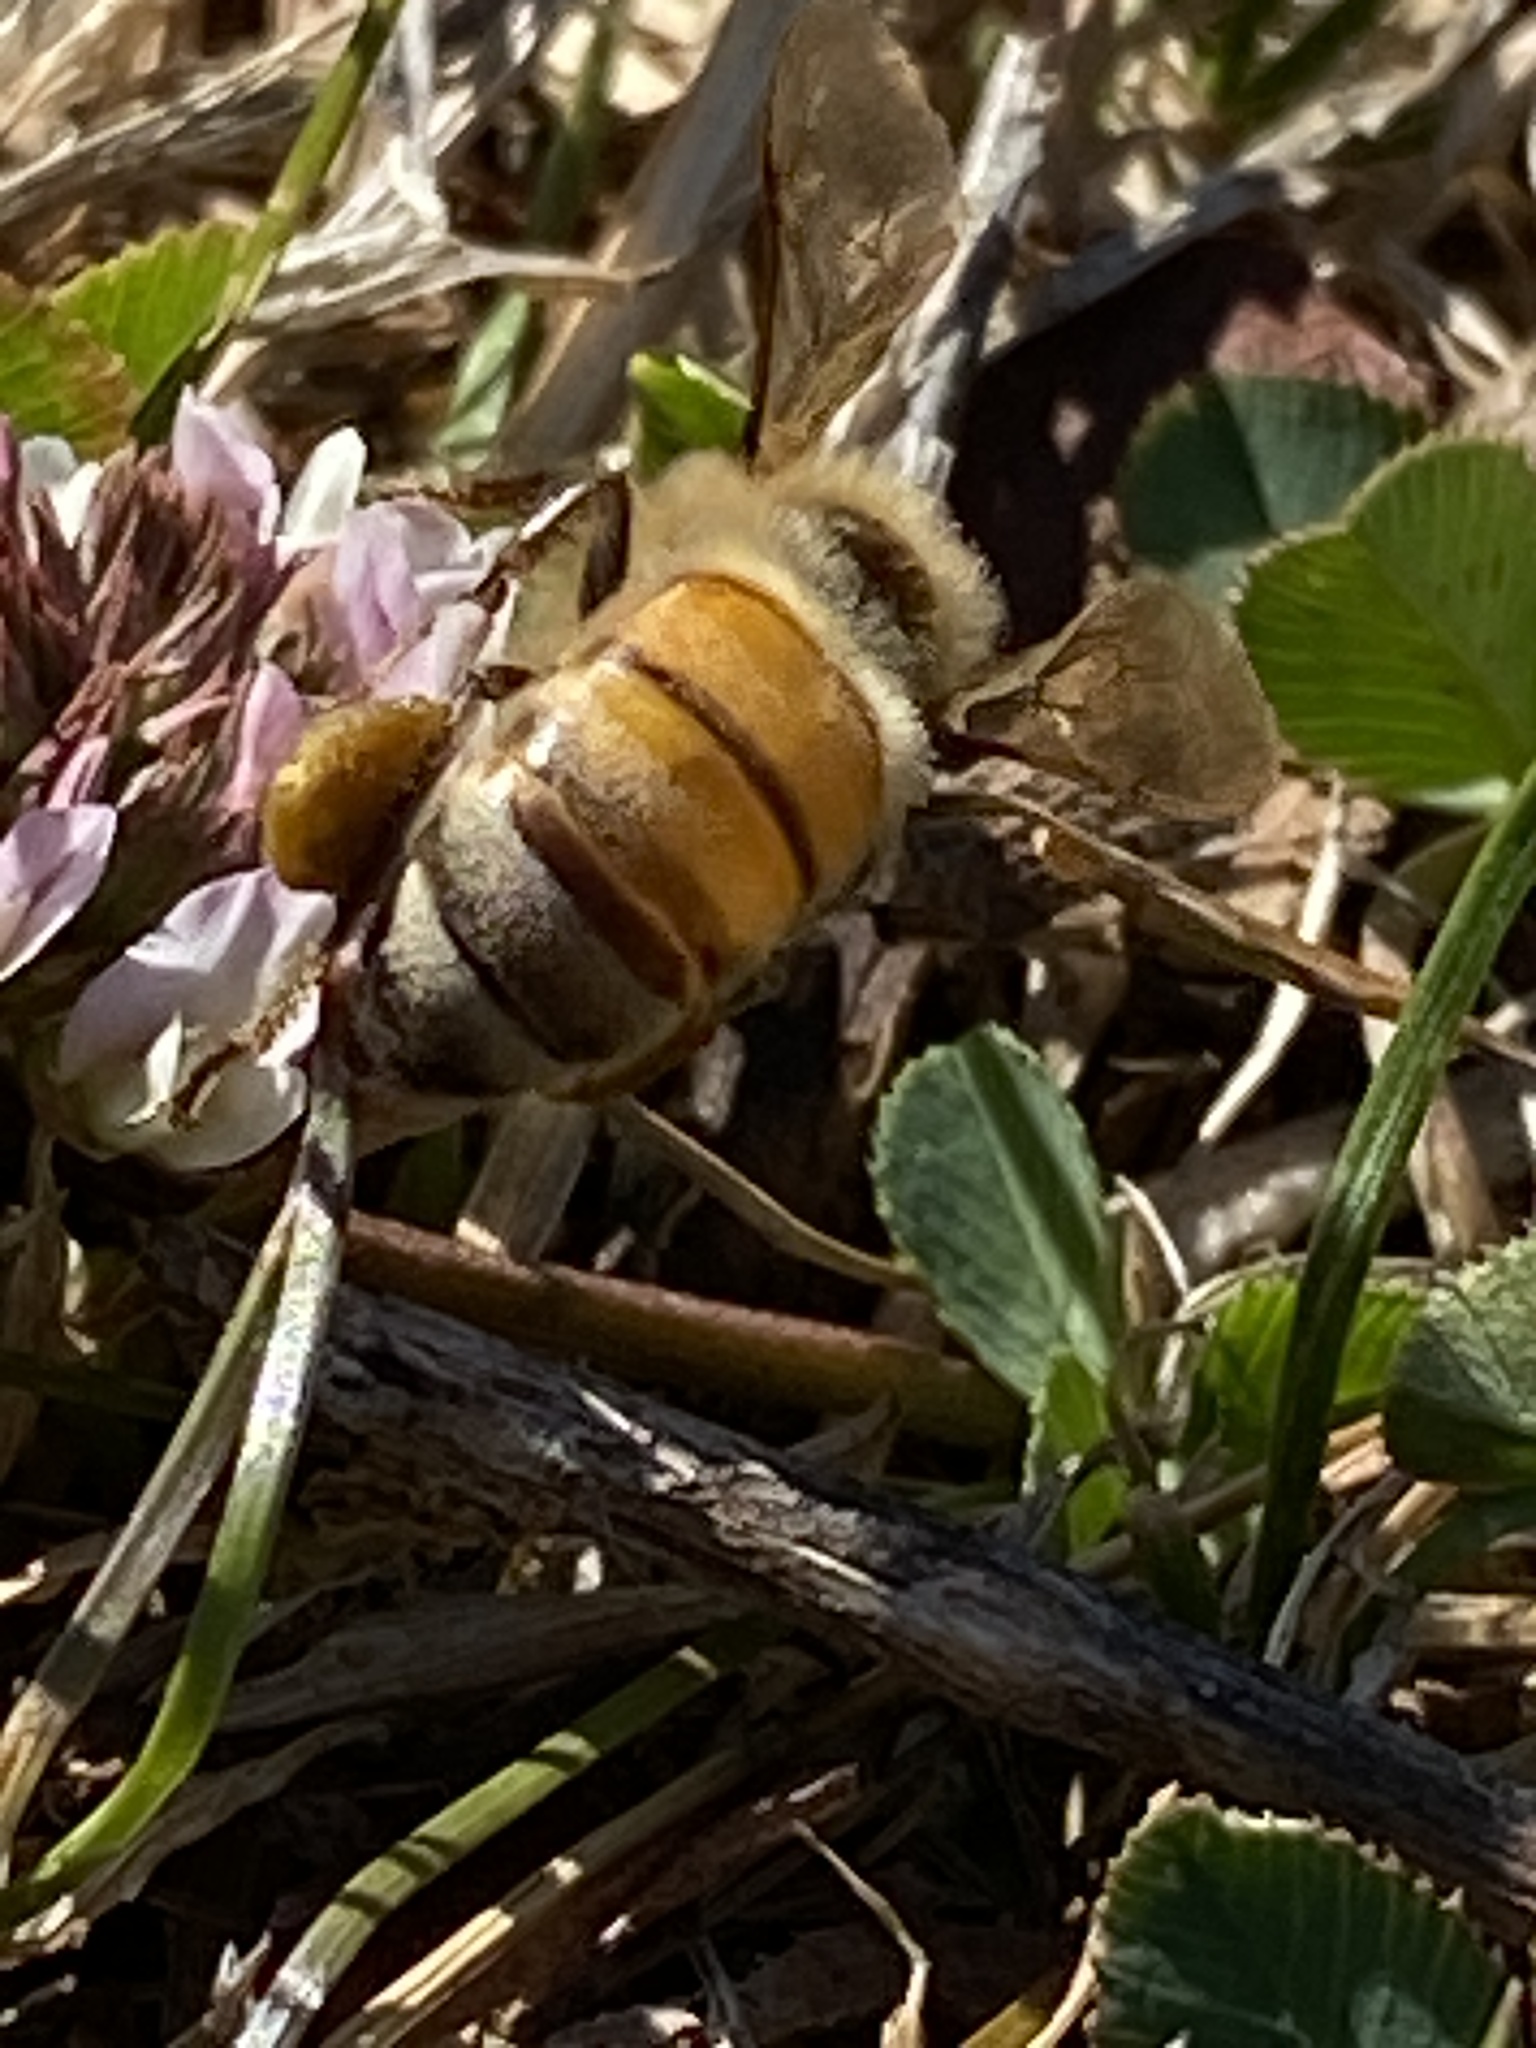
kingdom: Animalia
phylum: Arthropoda
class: Insecta
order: Hymenoptera
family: Apidae
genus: Apis
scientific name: Apis mellifera
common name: Honey bee
